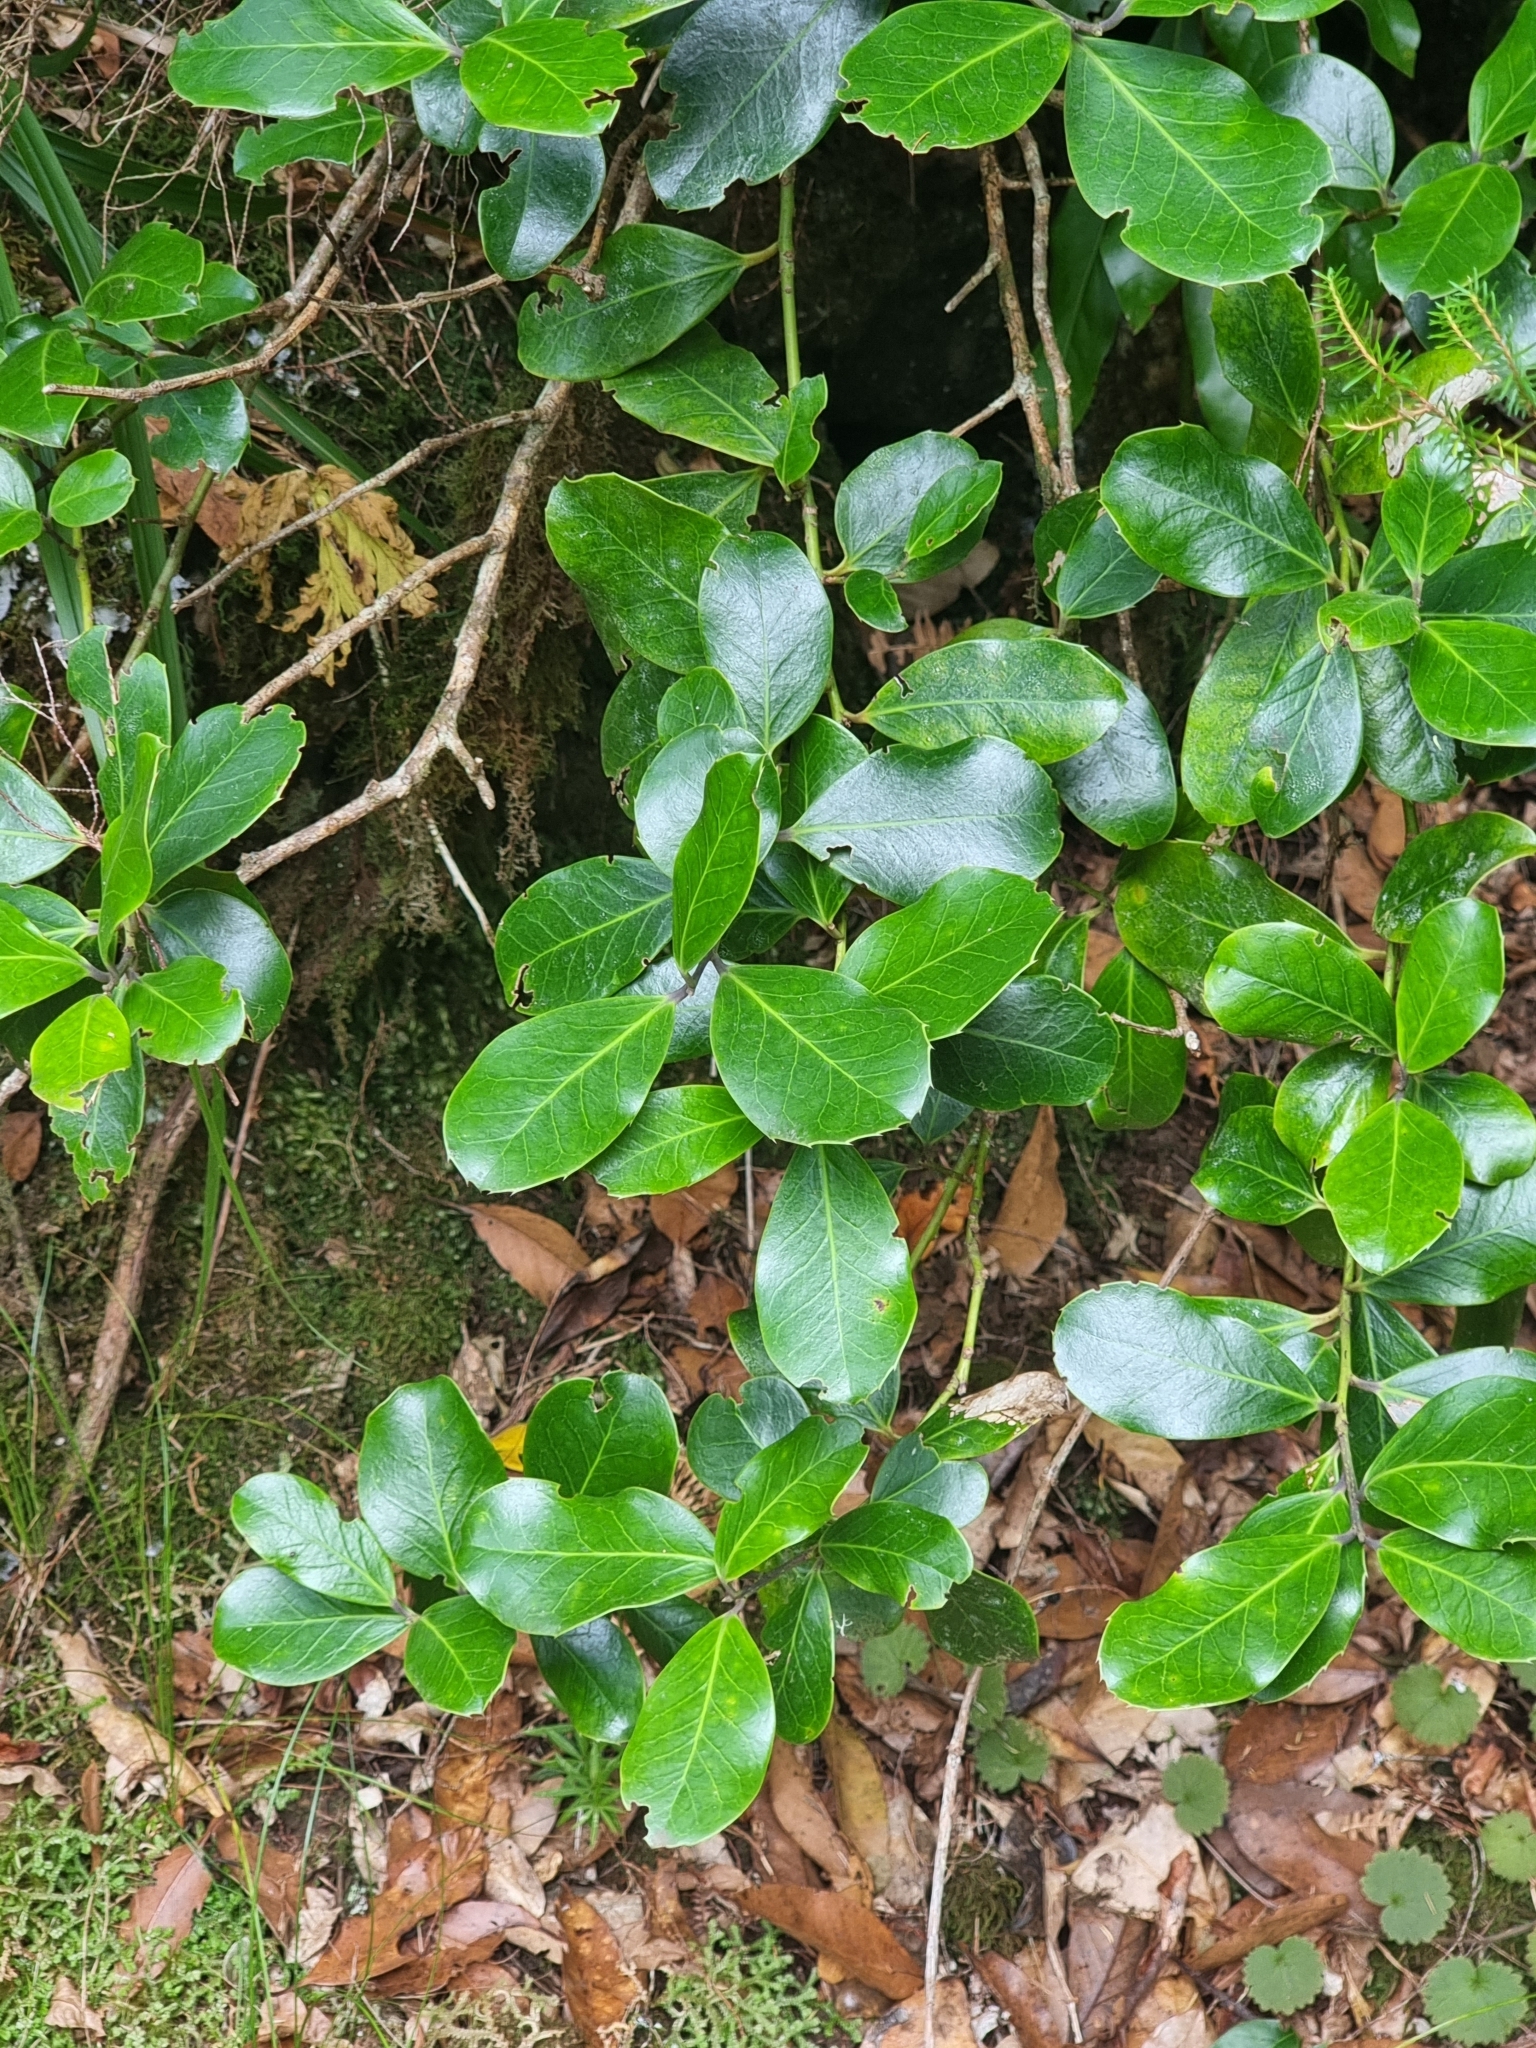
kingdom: Plantae
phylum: Tracheophyta
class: Magnoliopsida
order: Aquifoliales
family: Aquifoliaceae
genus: Ilex
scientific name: Ilex perado
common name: Madeira holly
